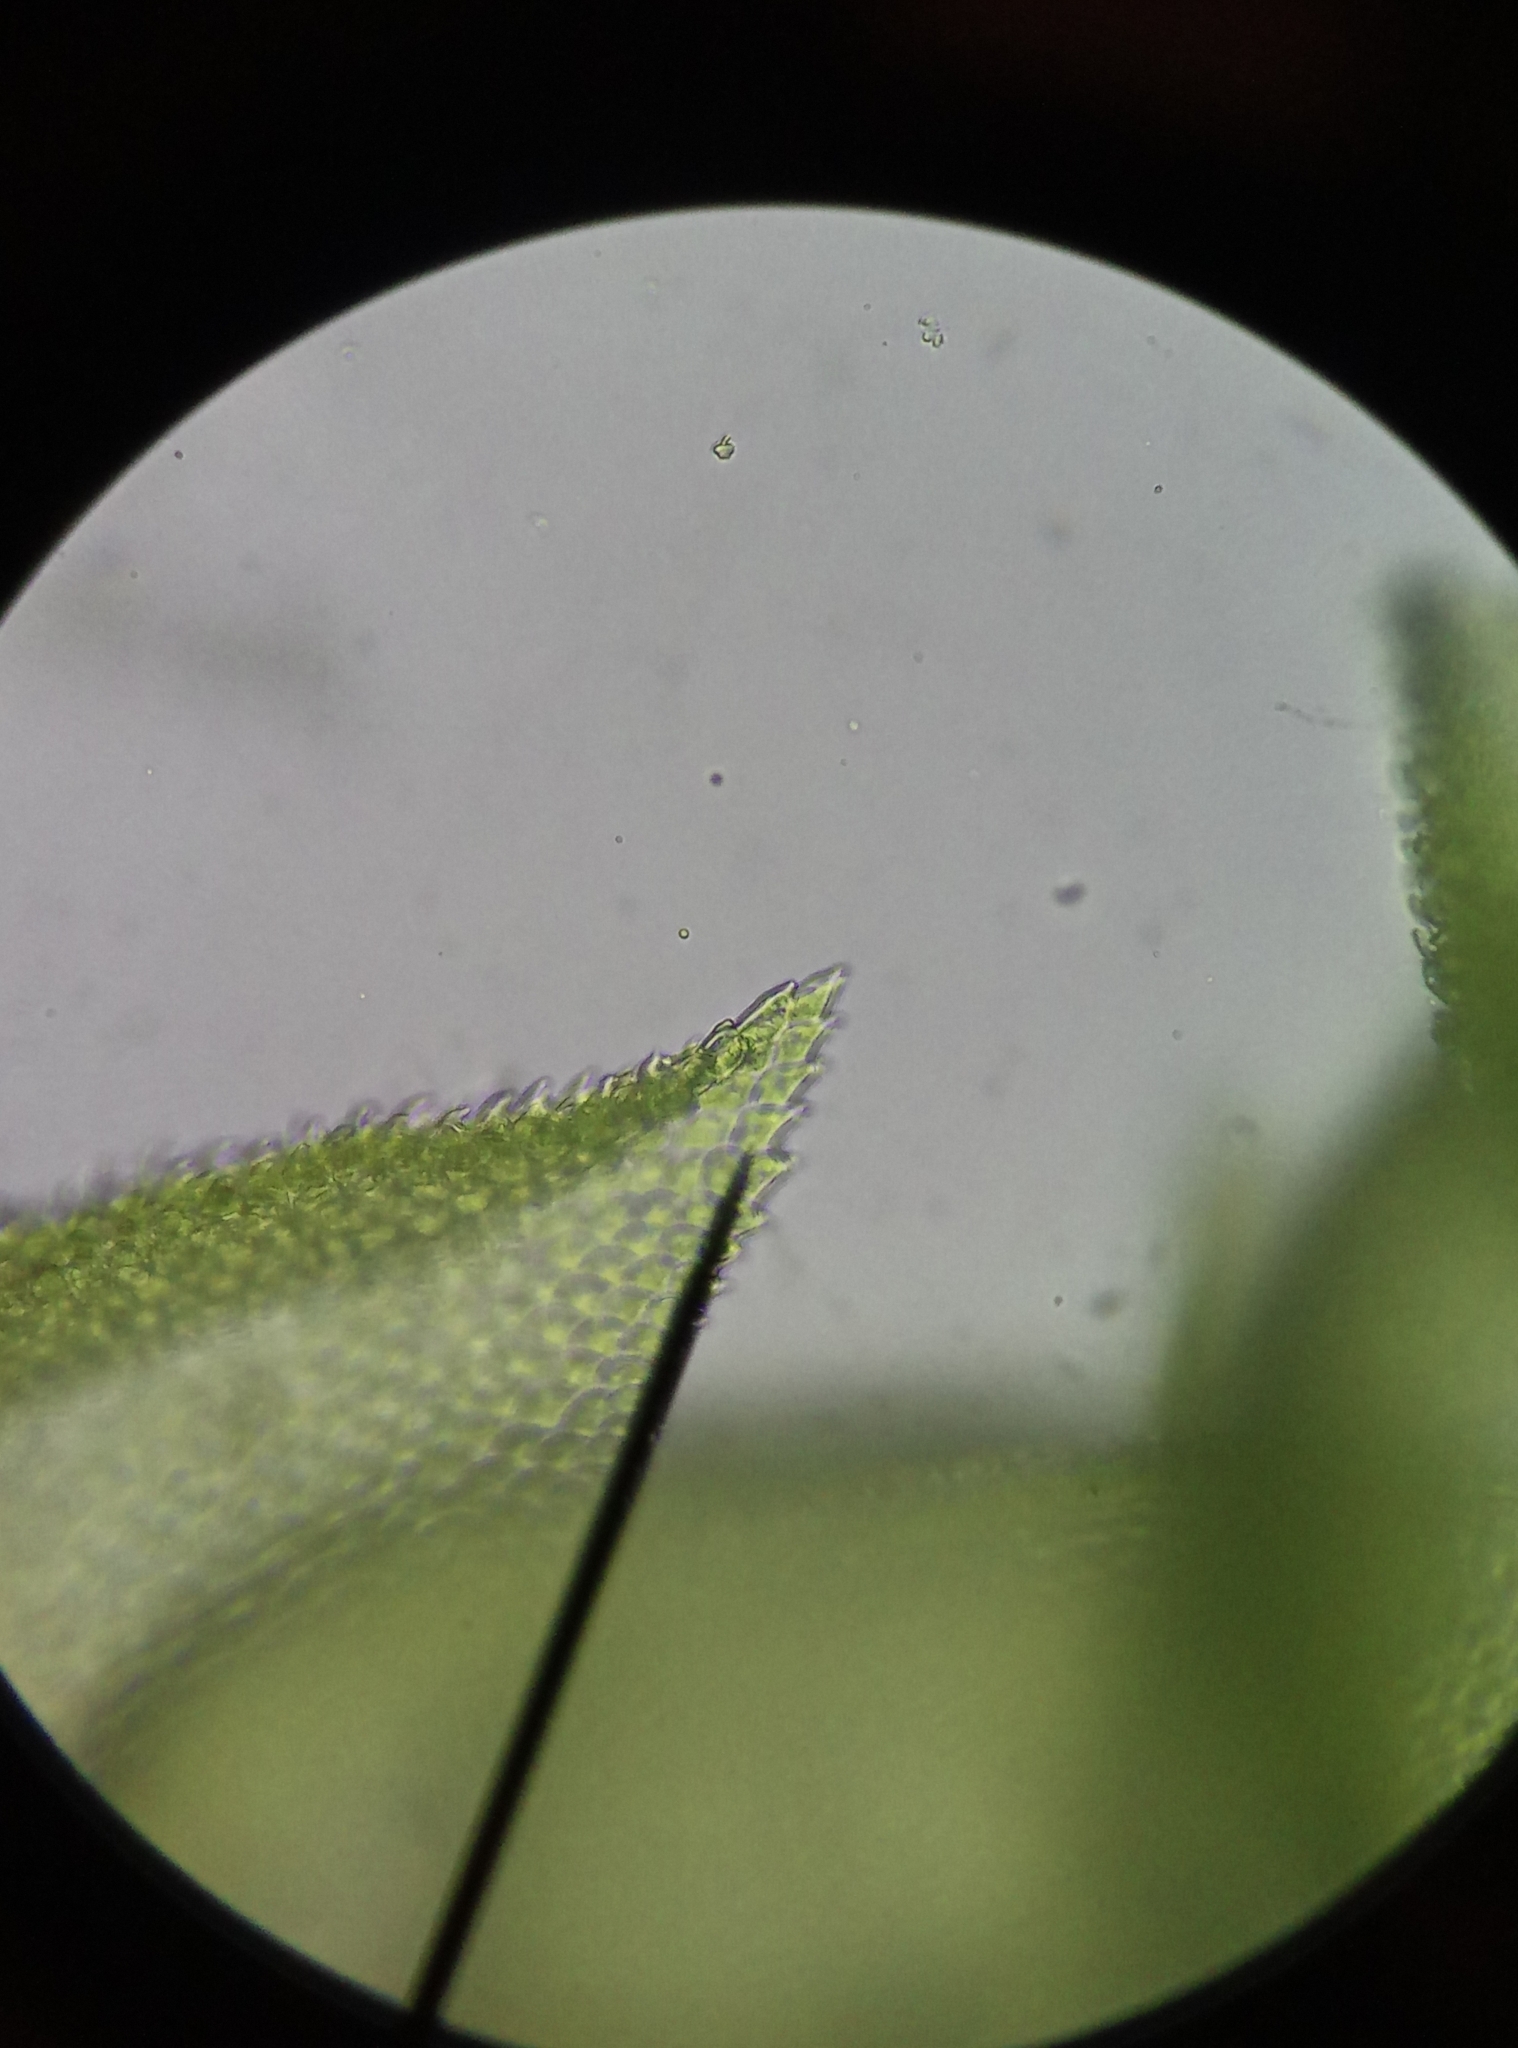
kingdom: Plantae
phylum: Bryophyta
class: Bryopsida
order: Hypnales
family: Thuidiaceae
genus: Thuidium
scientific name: Thuidium tamariscinum
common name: Common tamarisk-moss
